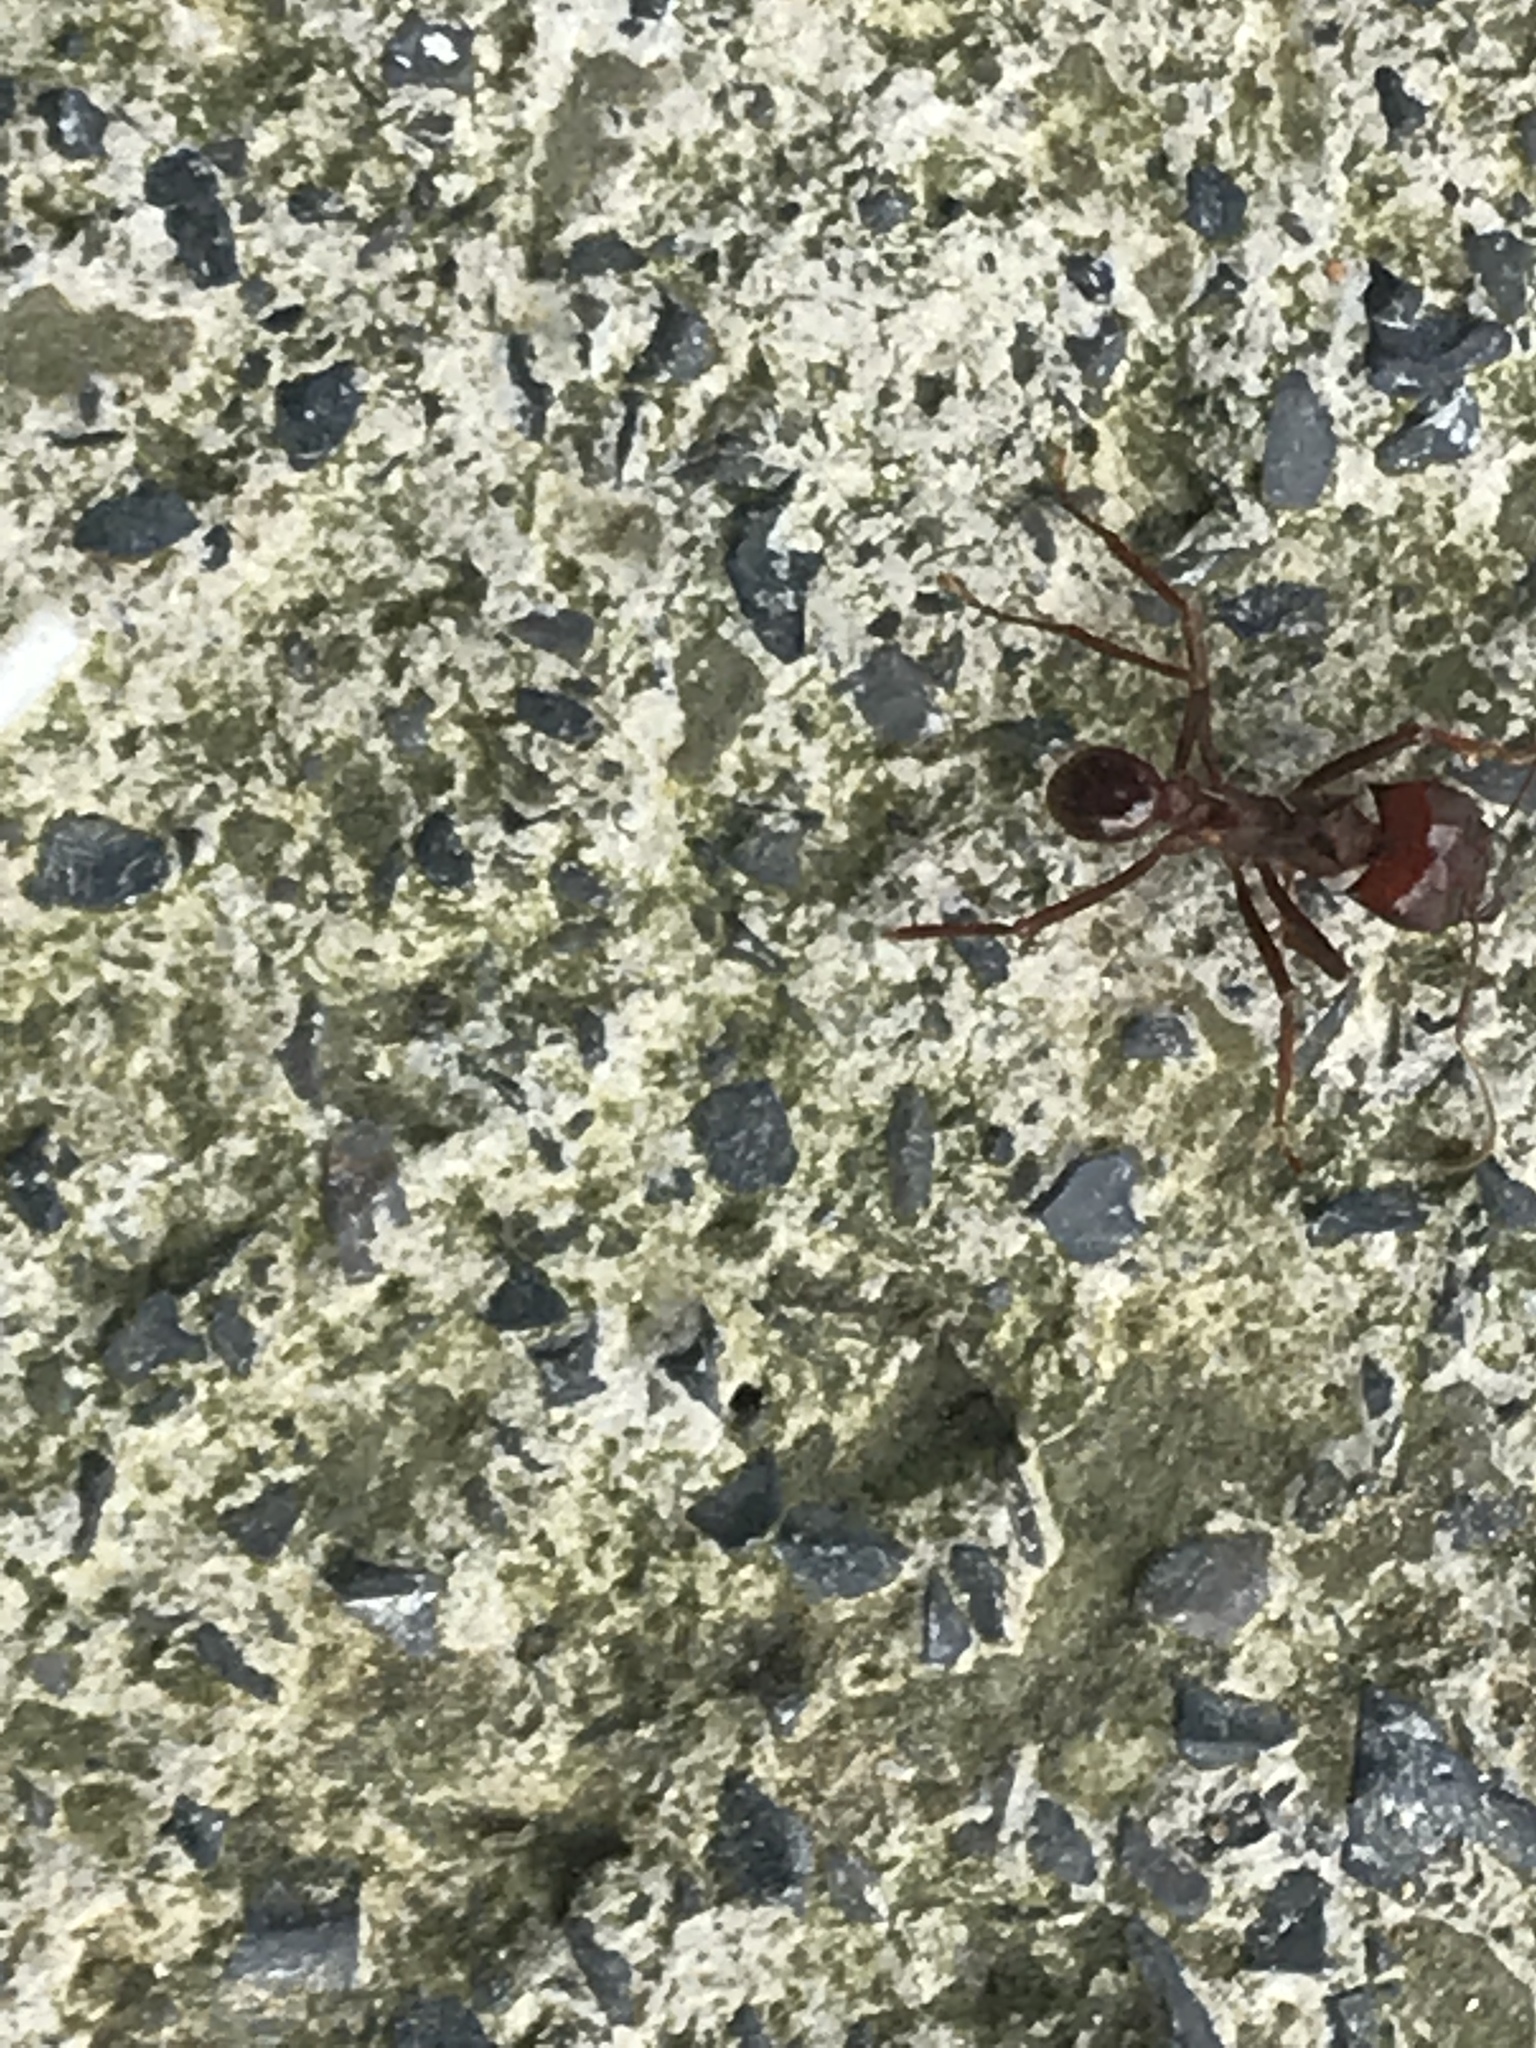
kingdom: Animalia
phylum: Arthropoda
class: Insecta
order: Hymenoptera
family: Formicidae
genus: Atta
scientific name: Atta mexicana
